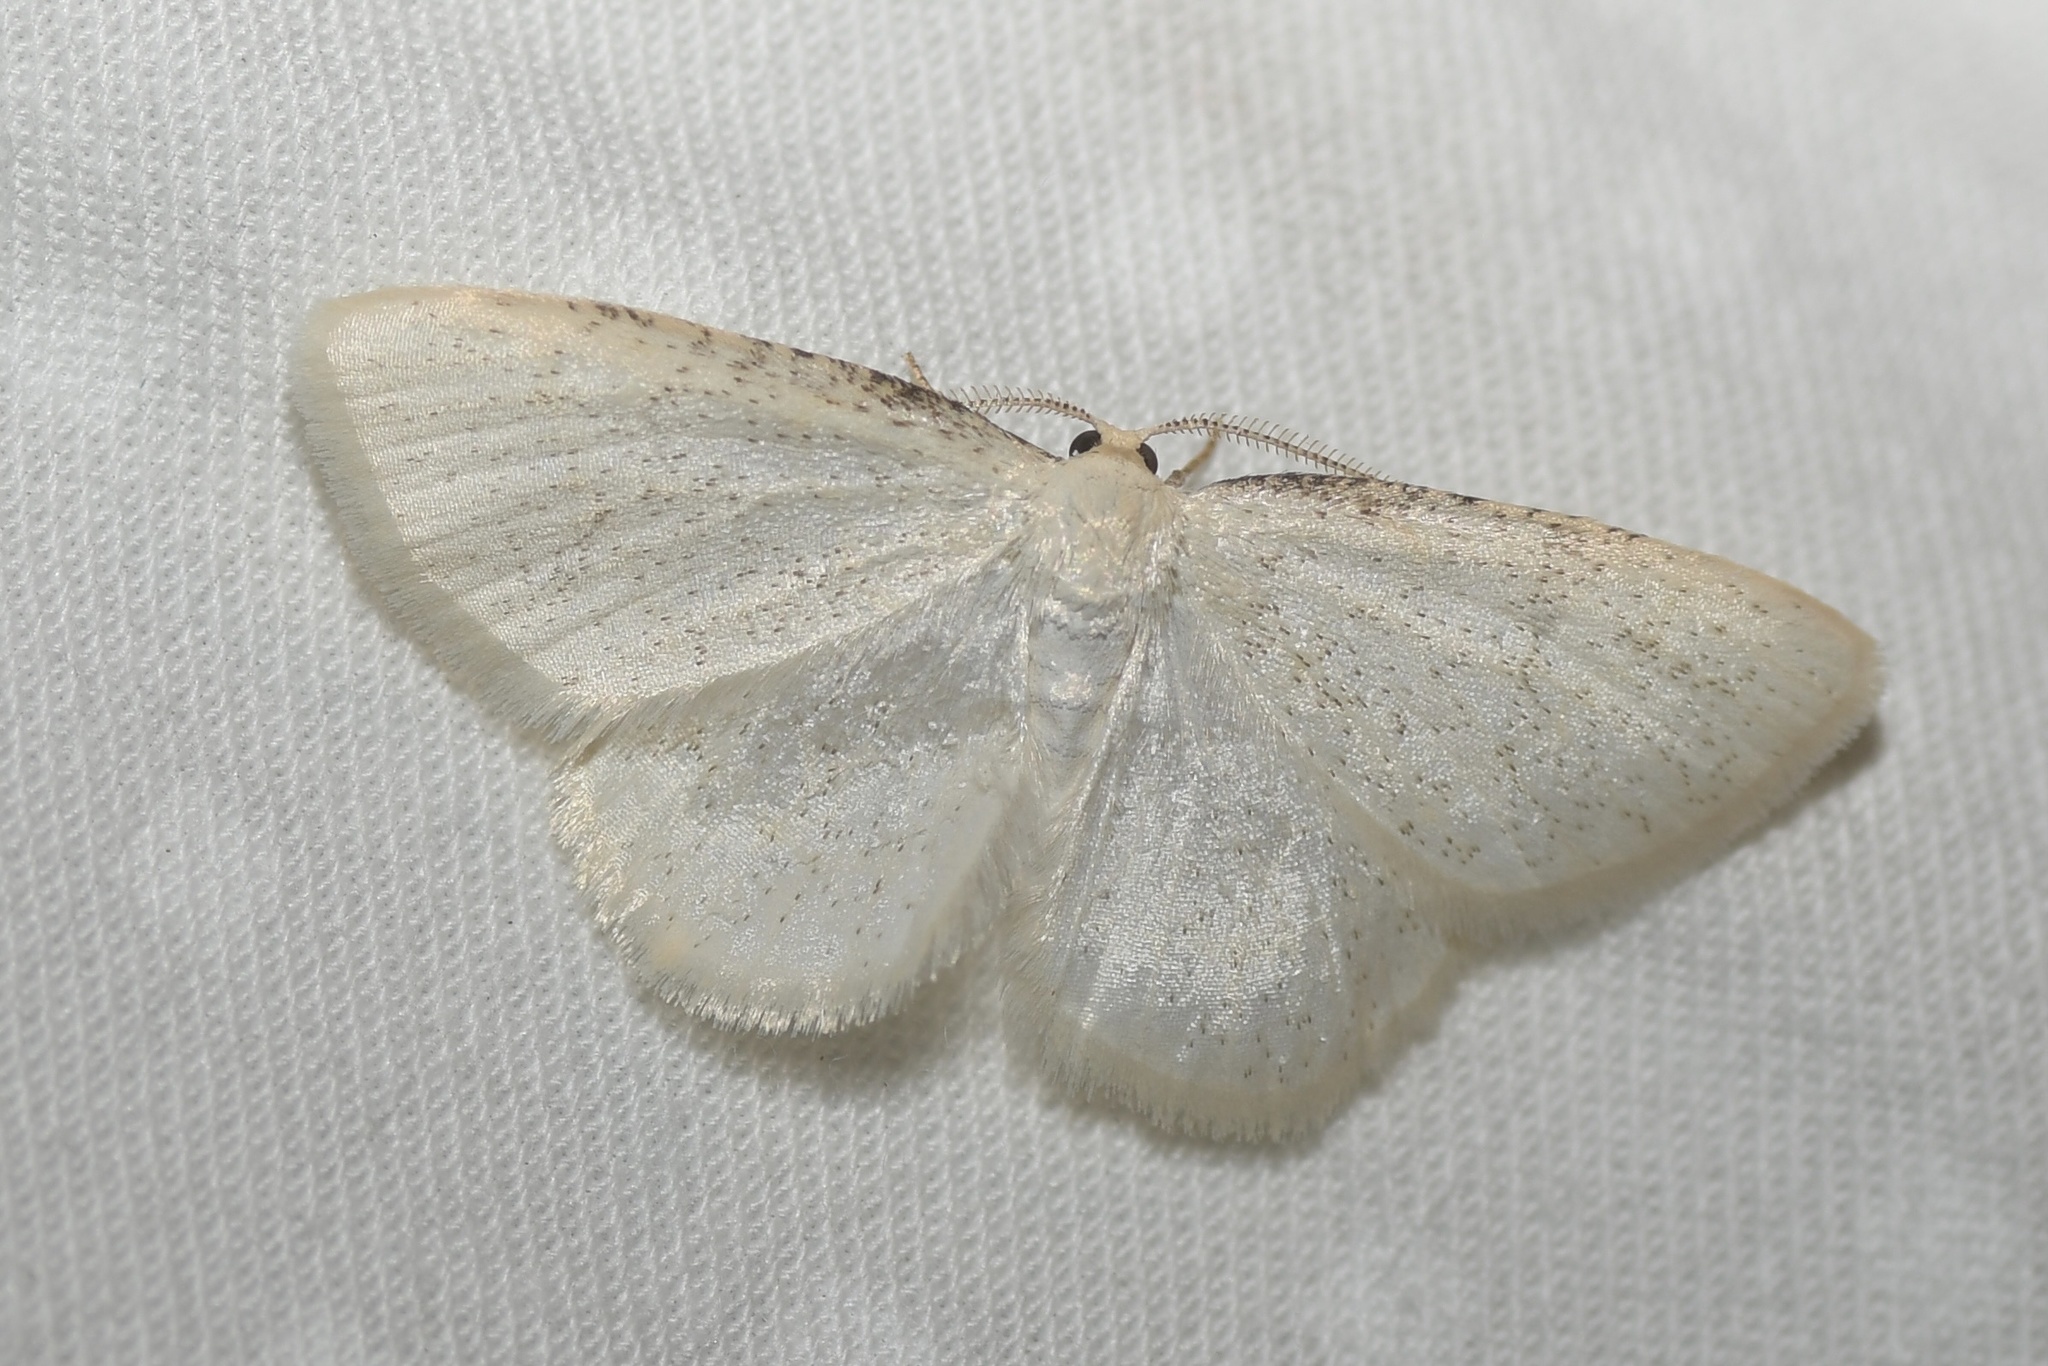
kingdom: Animalia
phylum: Arthropoda
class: Insecta
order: Lepidoptera
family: Geometridae
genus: Protitame
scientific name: Protitame virginalis
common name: Virgin moth
